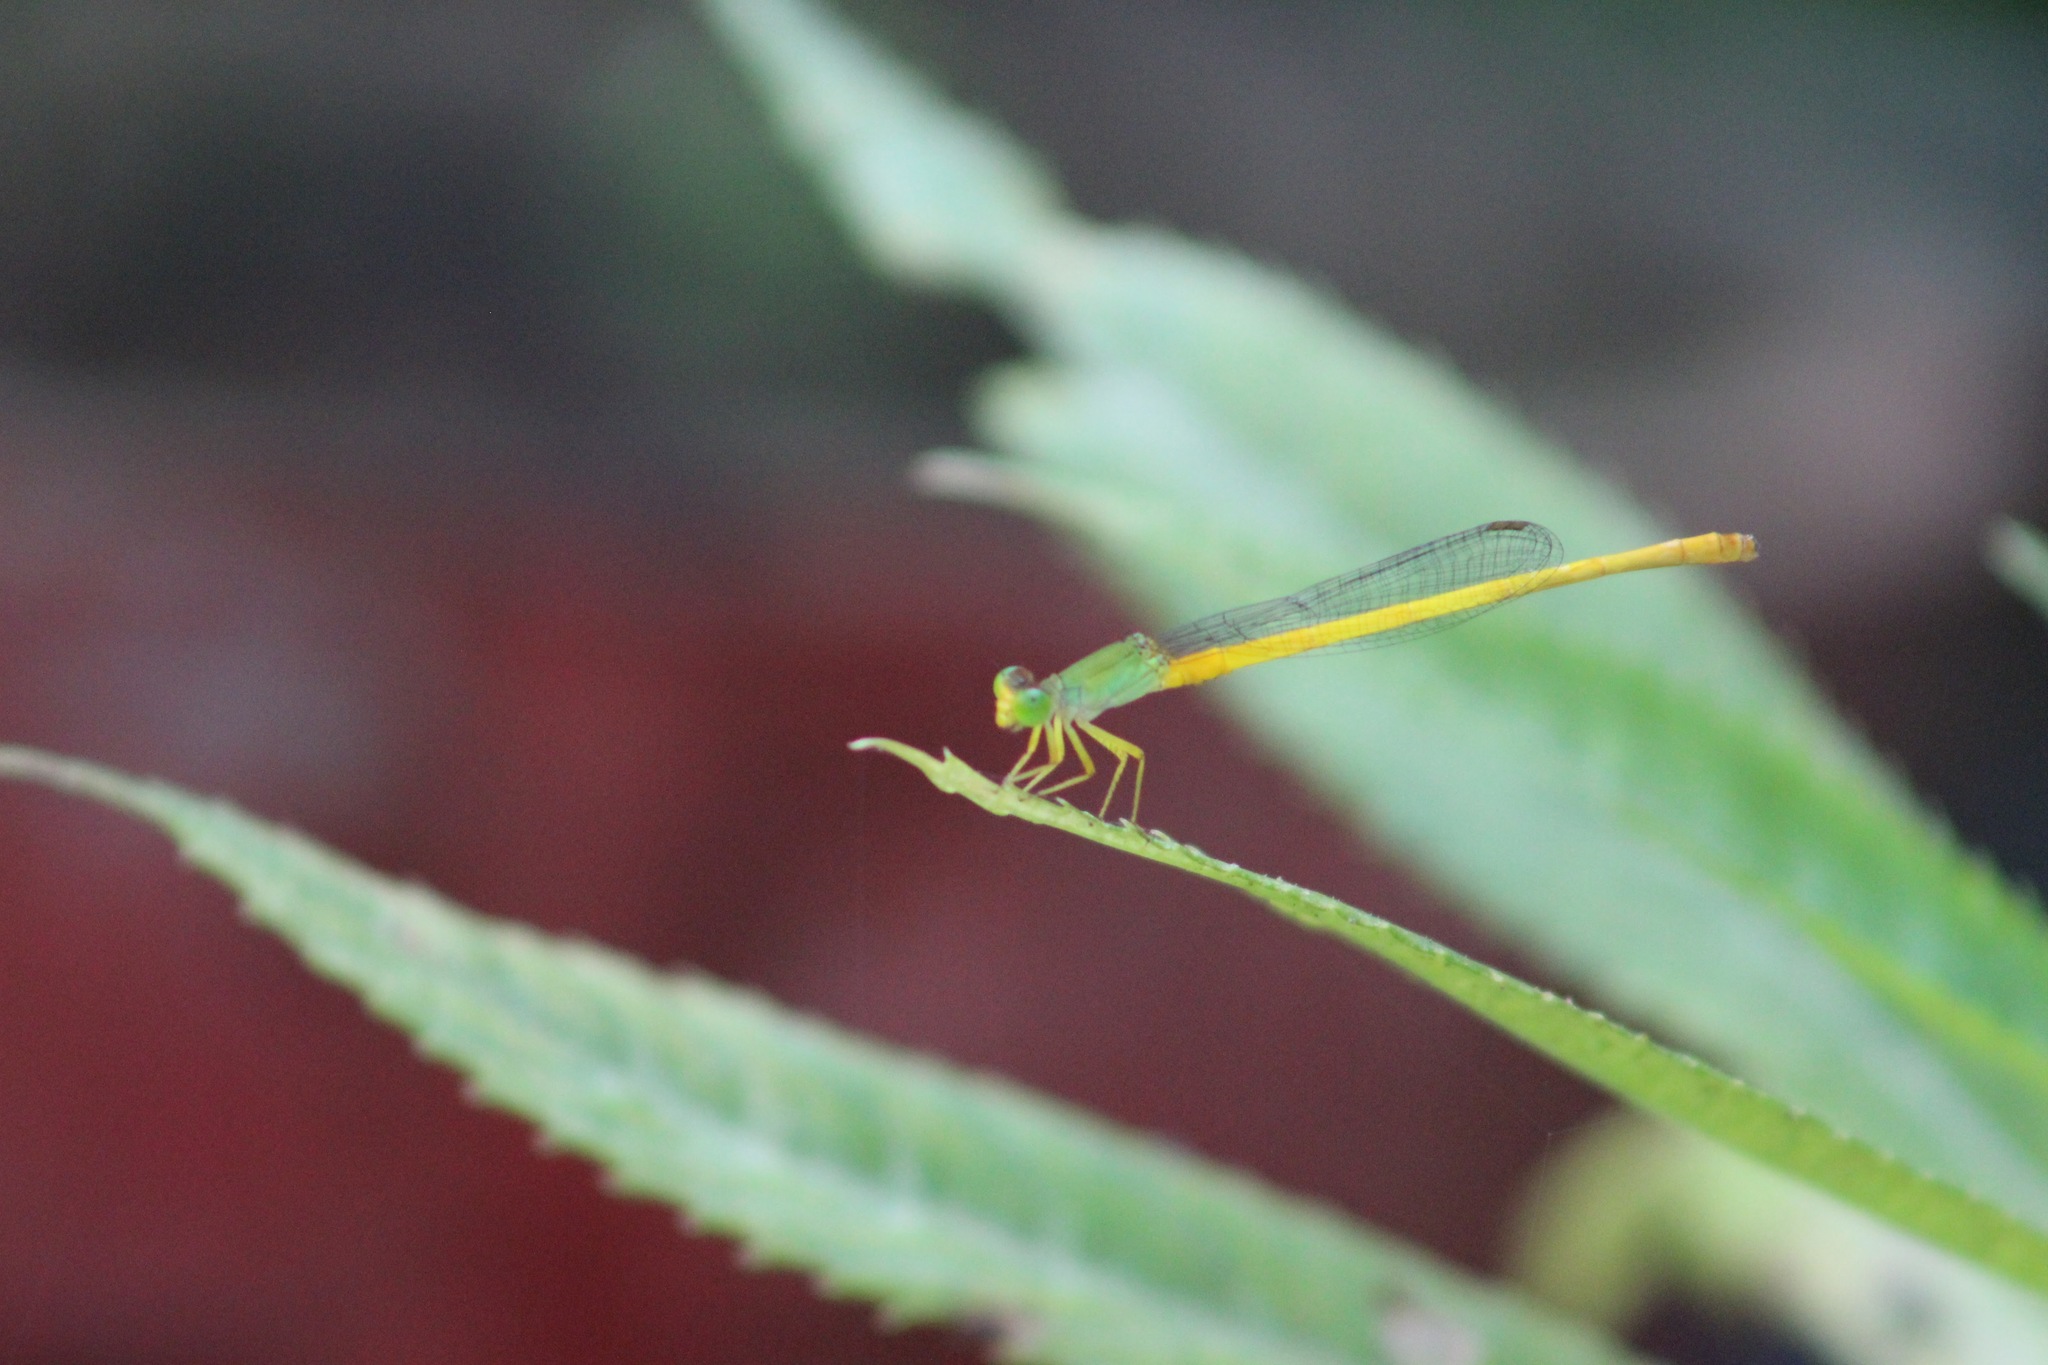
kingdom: Animalia
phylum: Arthropoda
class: Insecta
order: Odonata
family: Coenagrionidae
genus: Ischnura
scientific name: Ischnura hastata
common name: Citrine forktail
